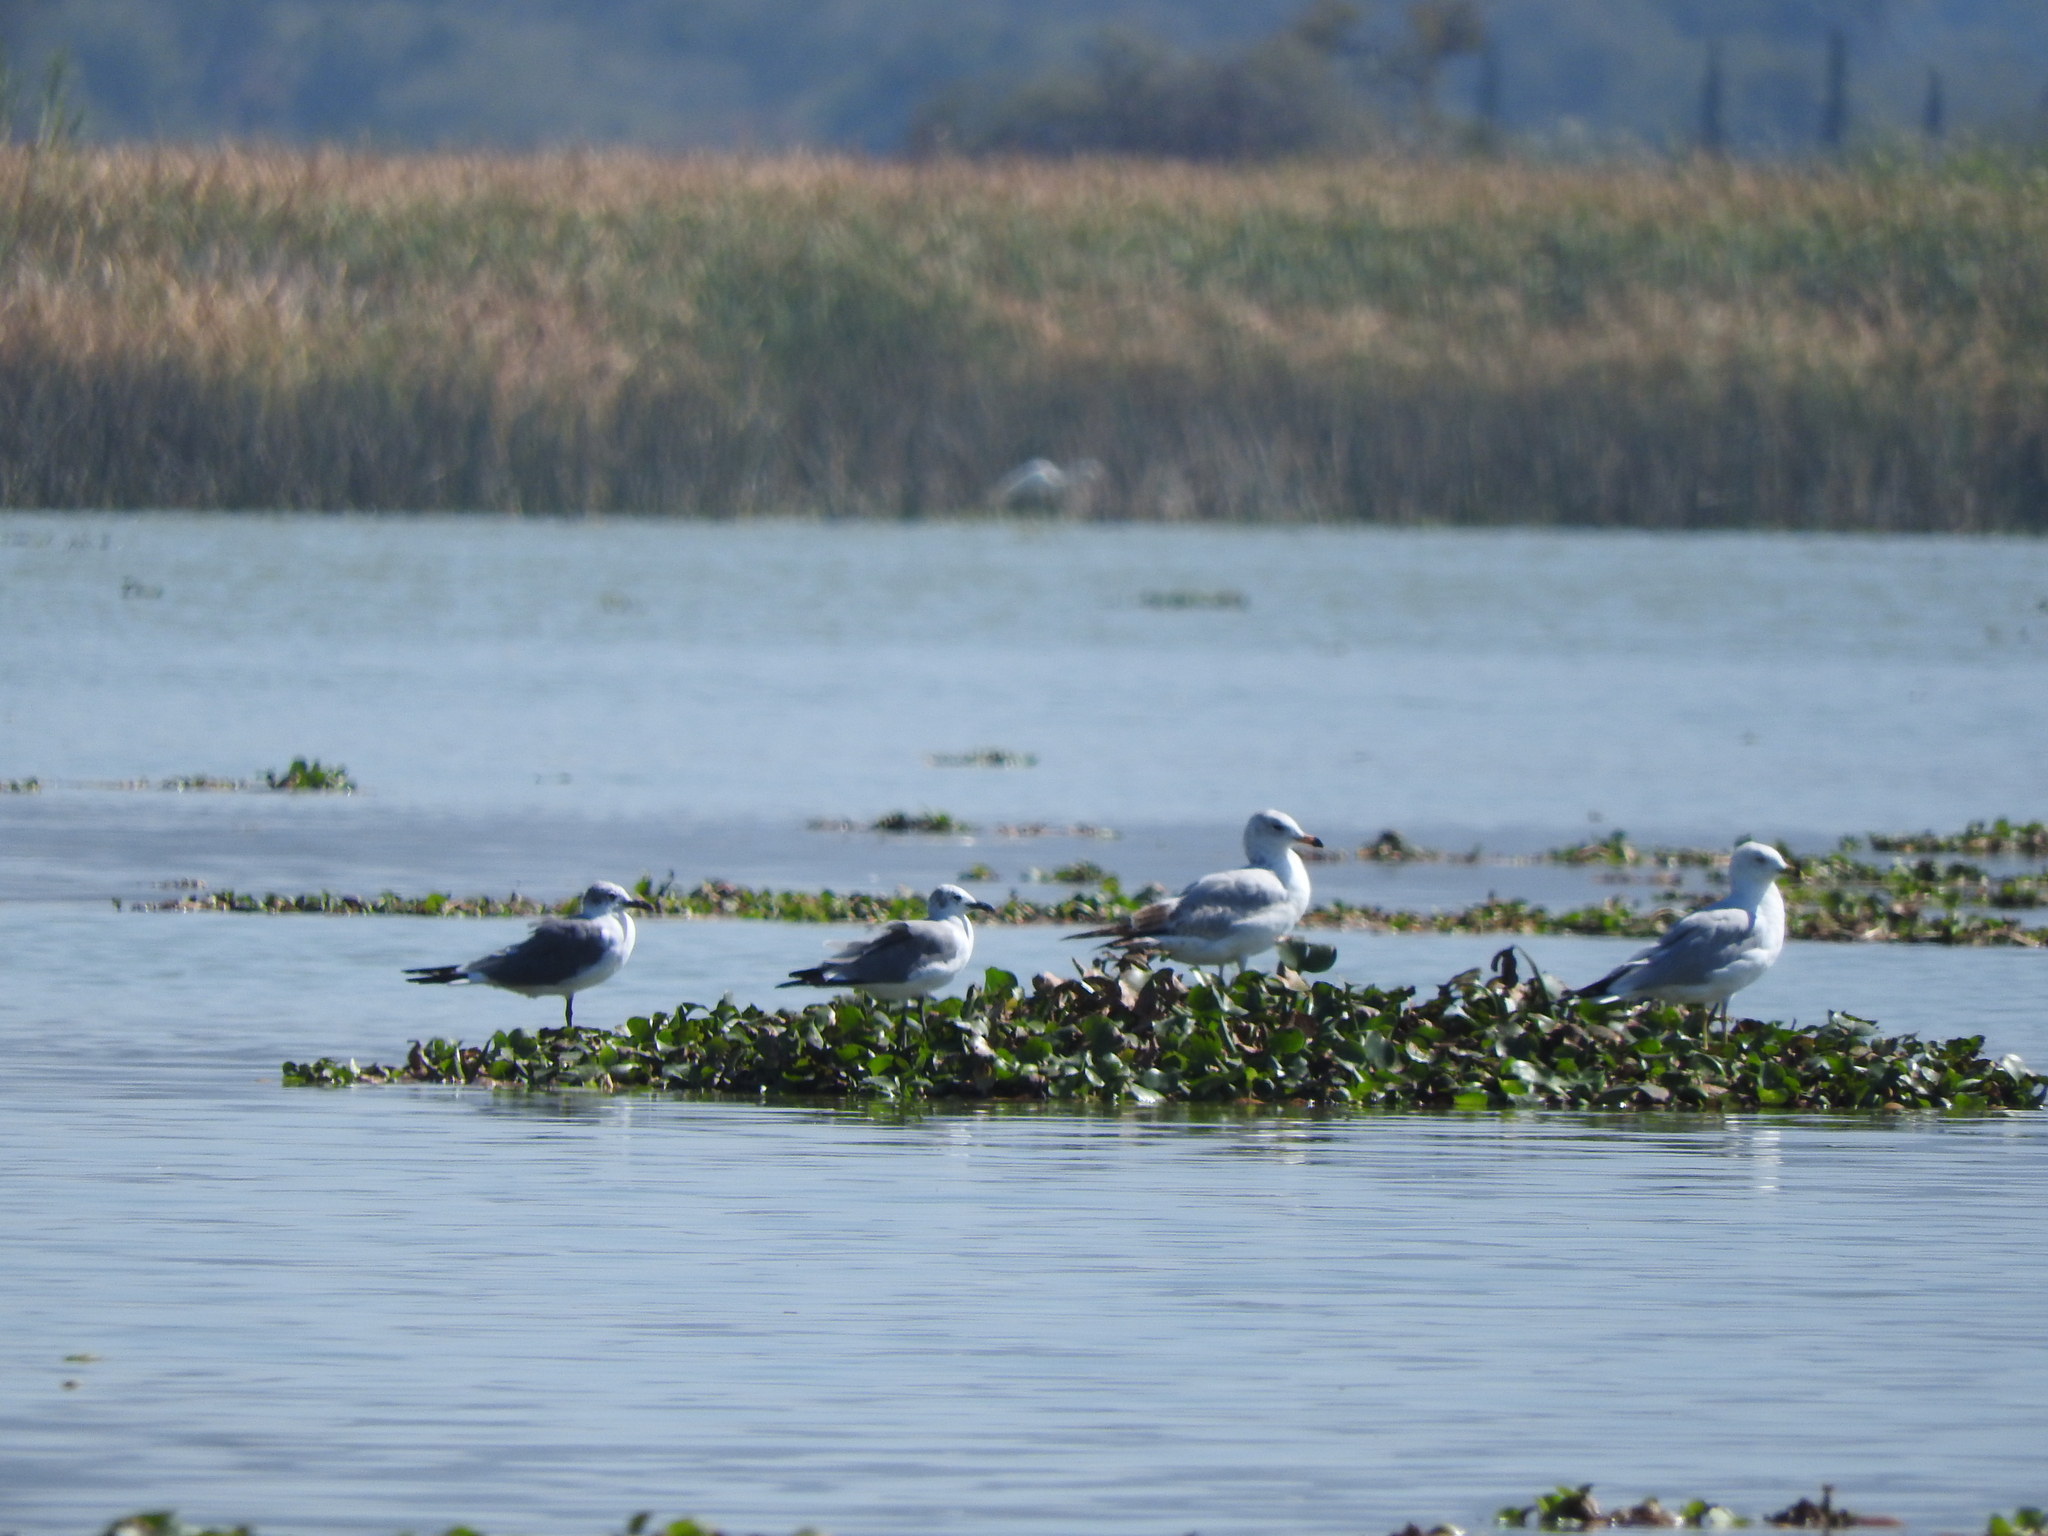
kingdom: Animalia
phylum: Chordata
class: Aves
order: Charadriiformes
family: Laridae
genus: Larus
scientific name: Larus delawarensis
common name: Ring-billed gull
